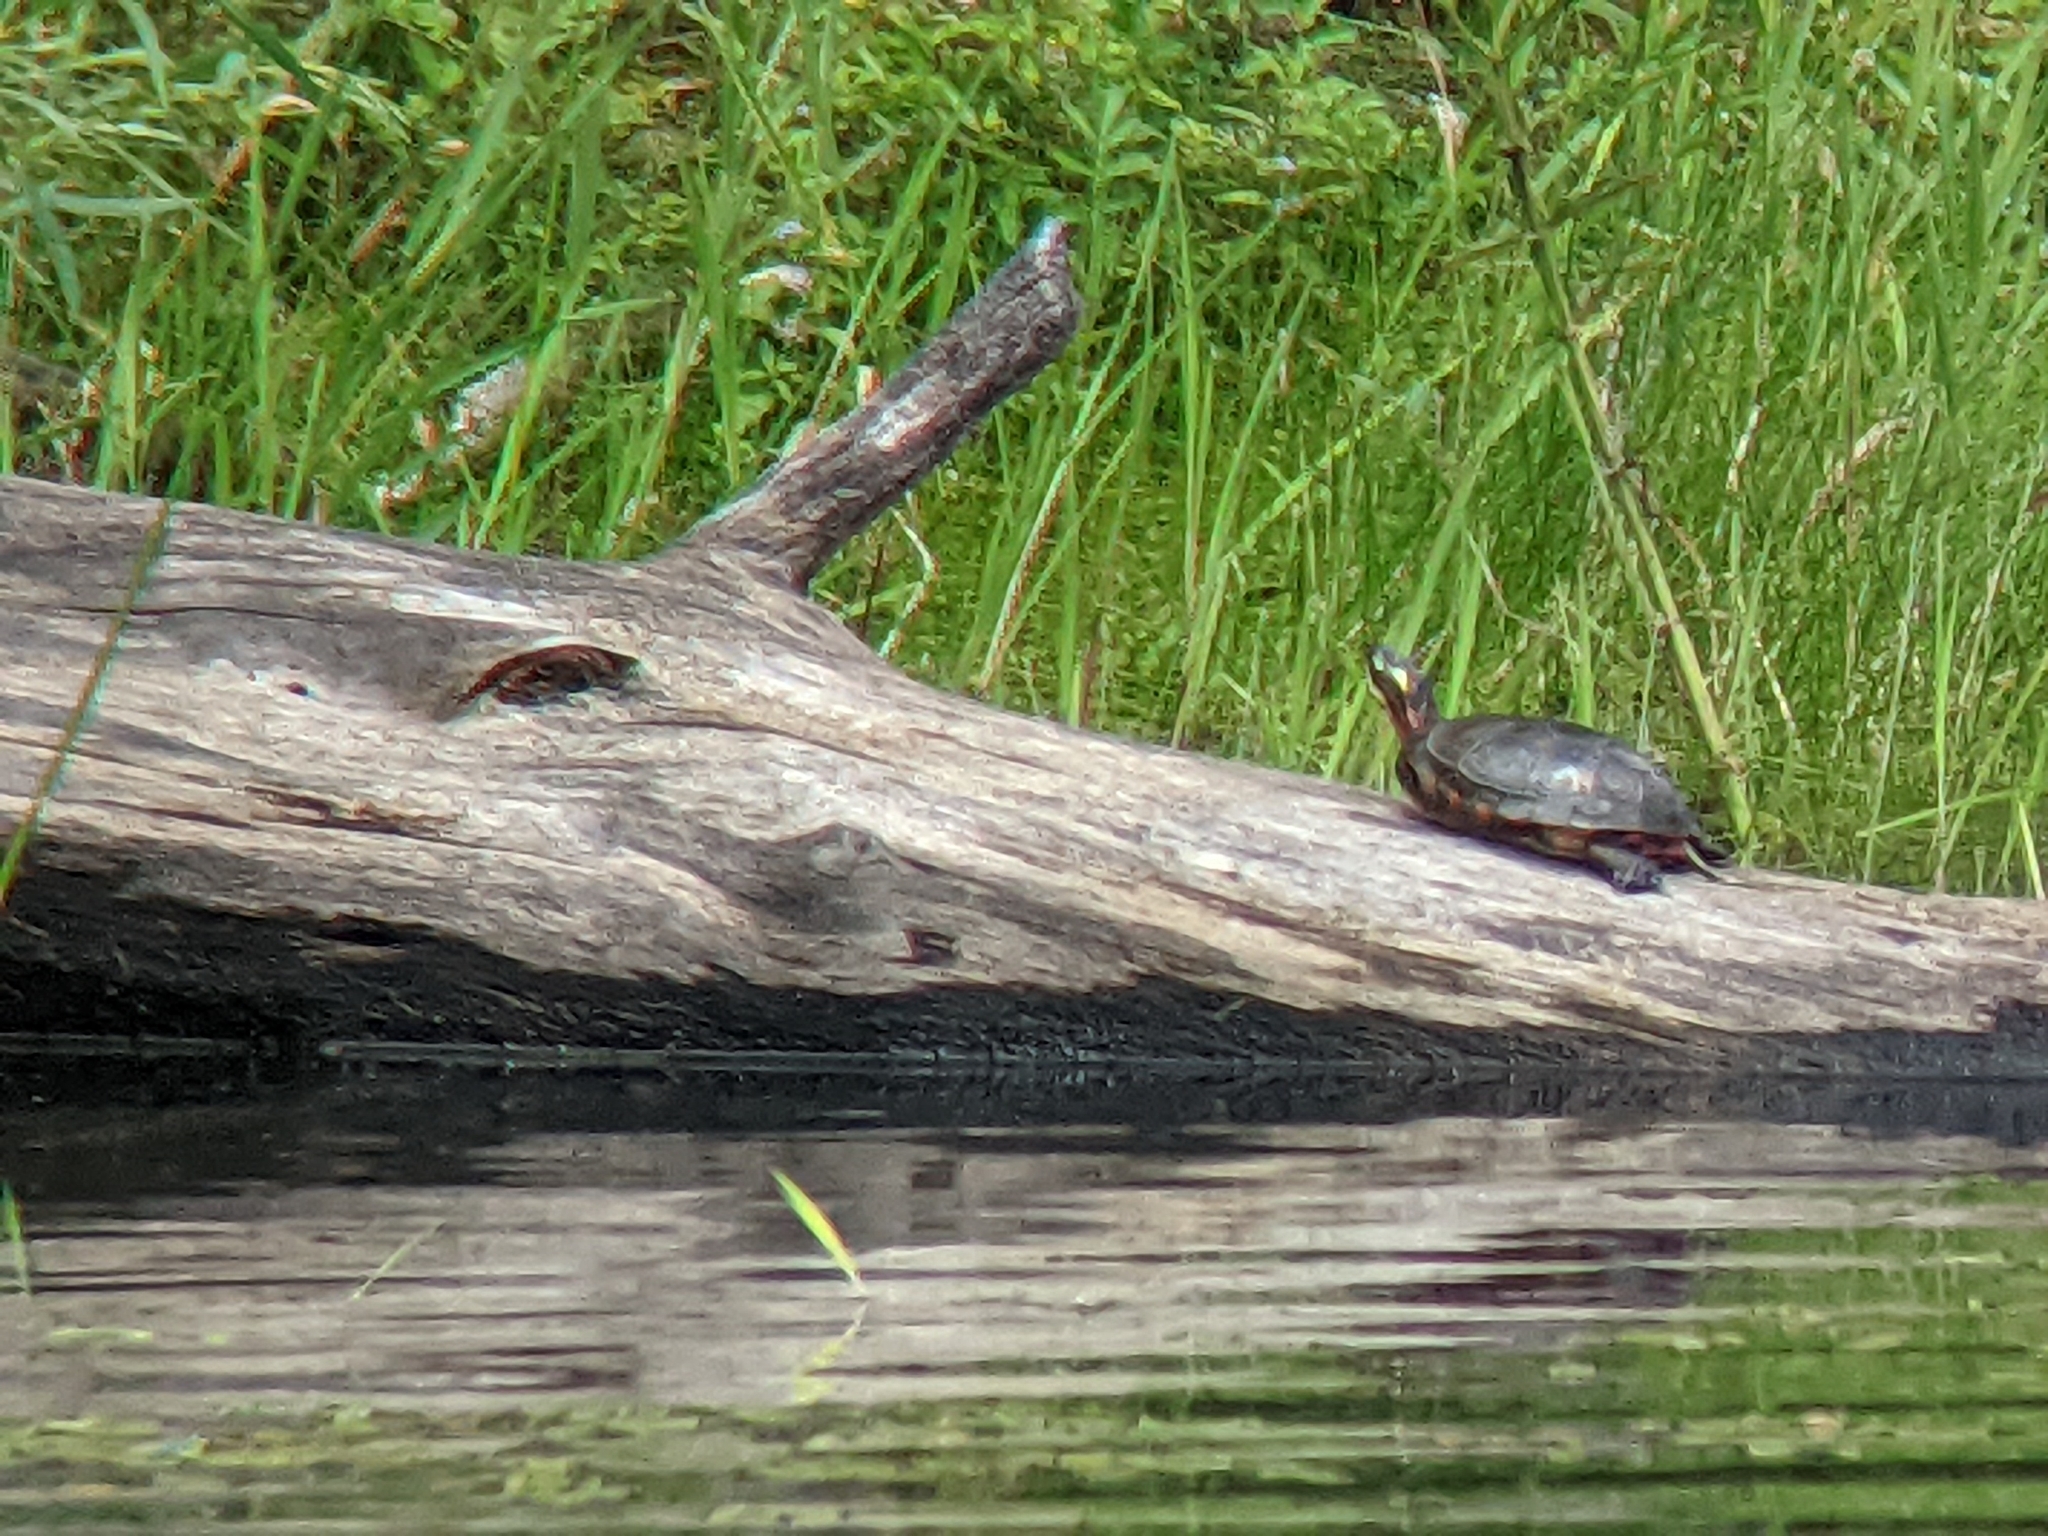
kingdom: Animalia
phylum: Chordata
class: Testudines
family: Emydidae
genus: Chrysemys
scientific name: Chrysemys picta
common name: Painted turtle
